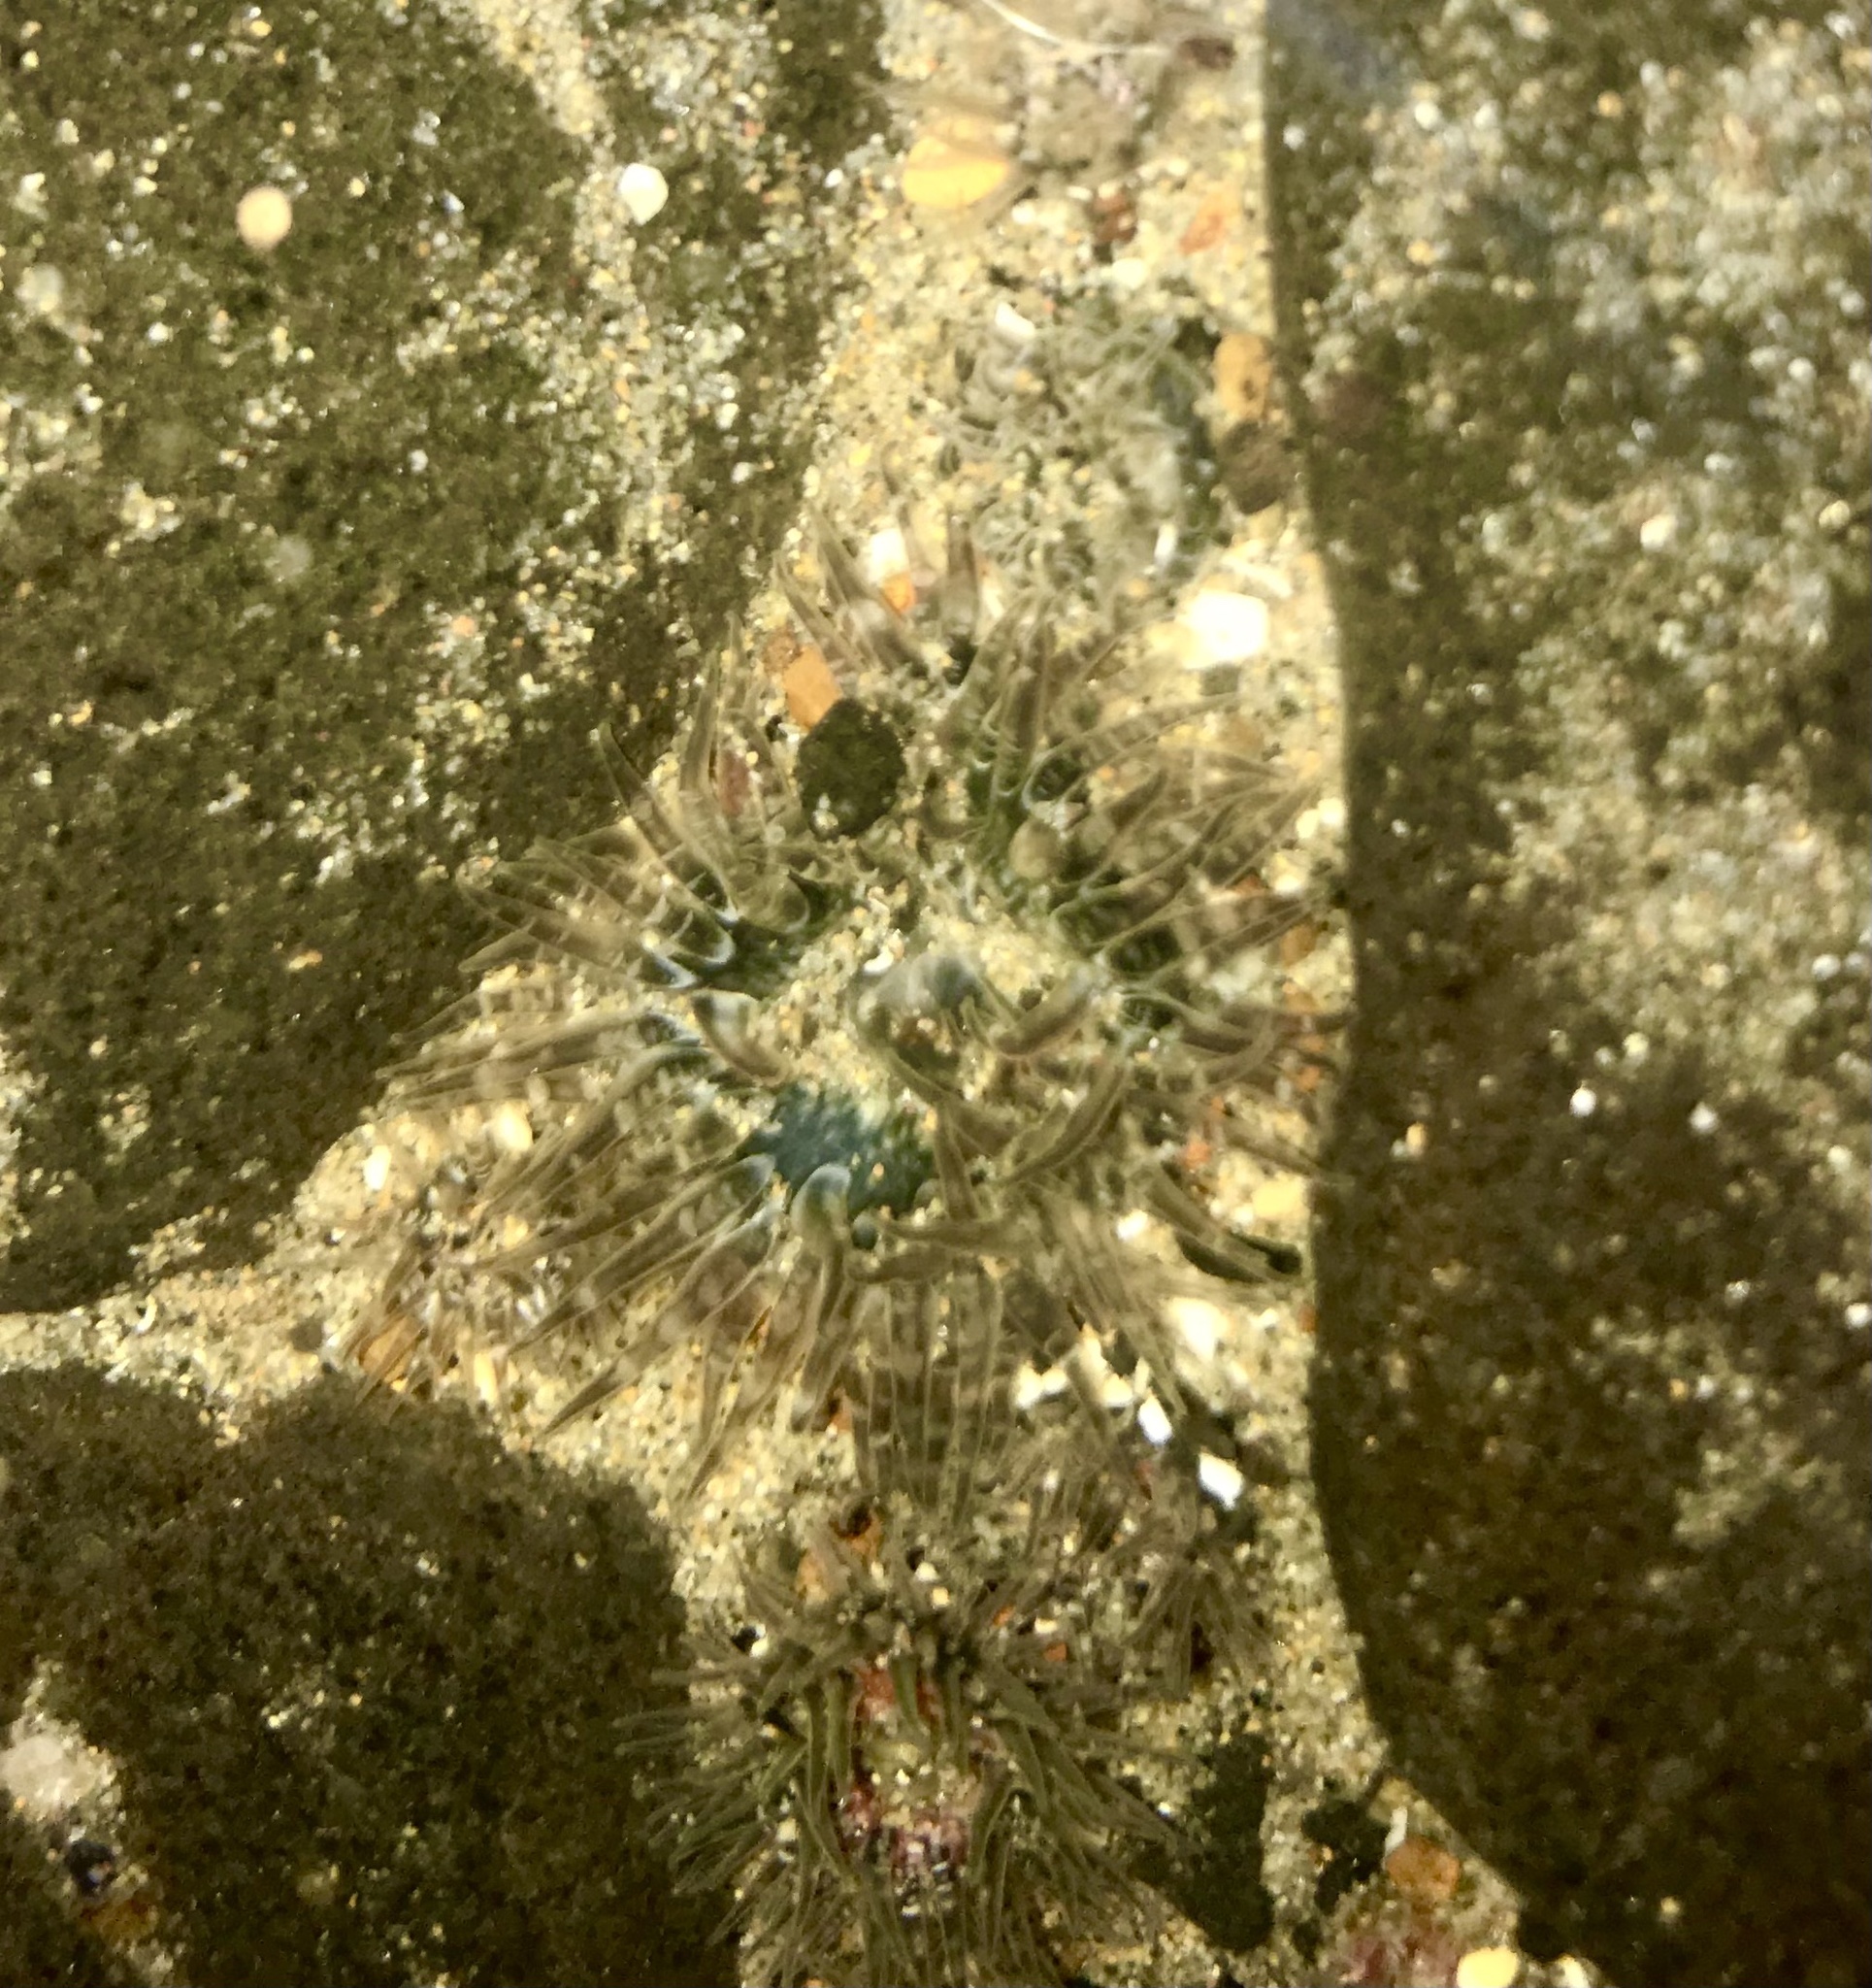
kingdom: Animalia
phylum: Cnidaria
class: Anthozoa
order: Actiniaria
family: Actiniidae
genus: Anthopleura
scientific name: Anthopleura artemisia
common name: Buried sea anemone
